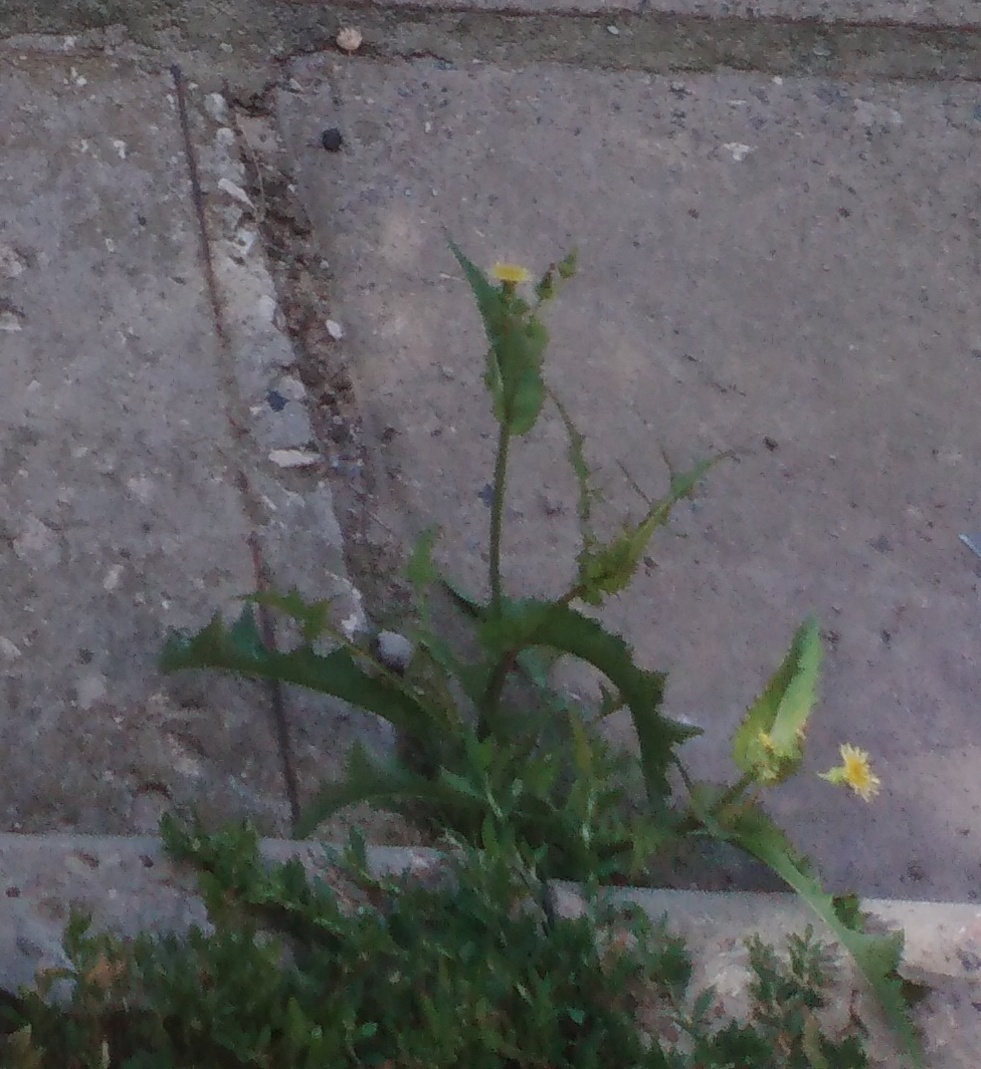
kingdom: Plantae
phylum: Tracheophyta
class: Magnoliopsida
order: Asterales
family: Asteraceae
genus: Sonchus
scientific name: Sonchus asper
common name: Prickly sow-thistle
